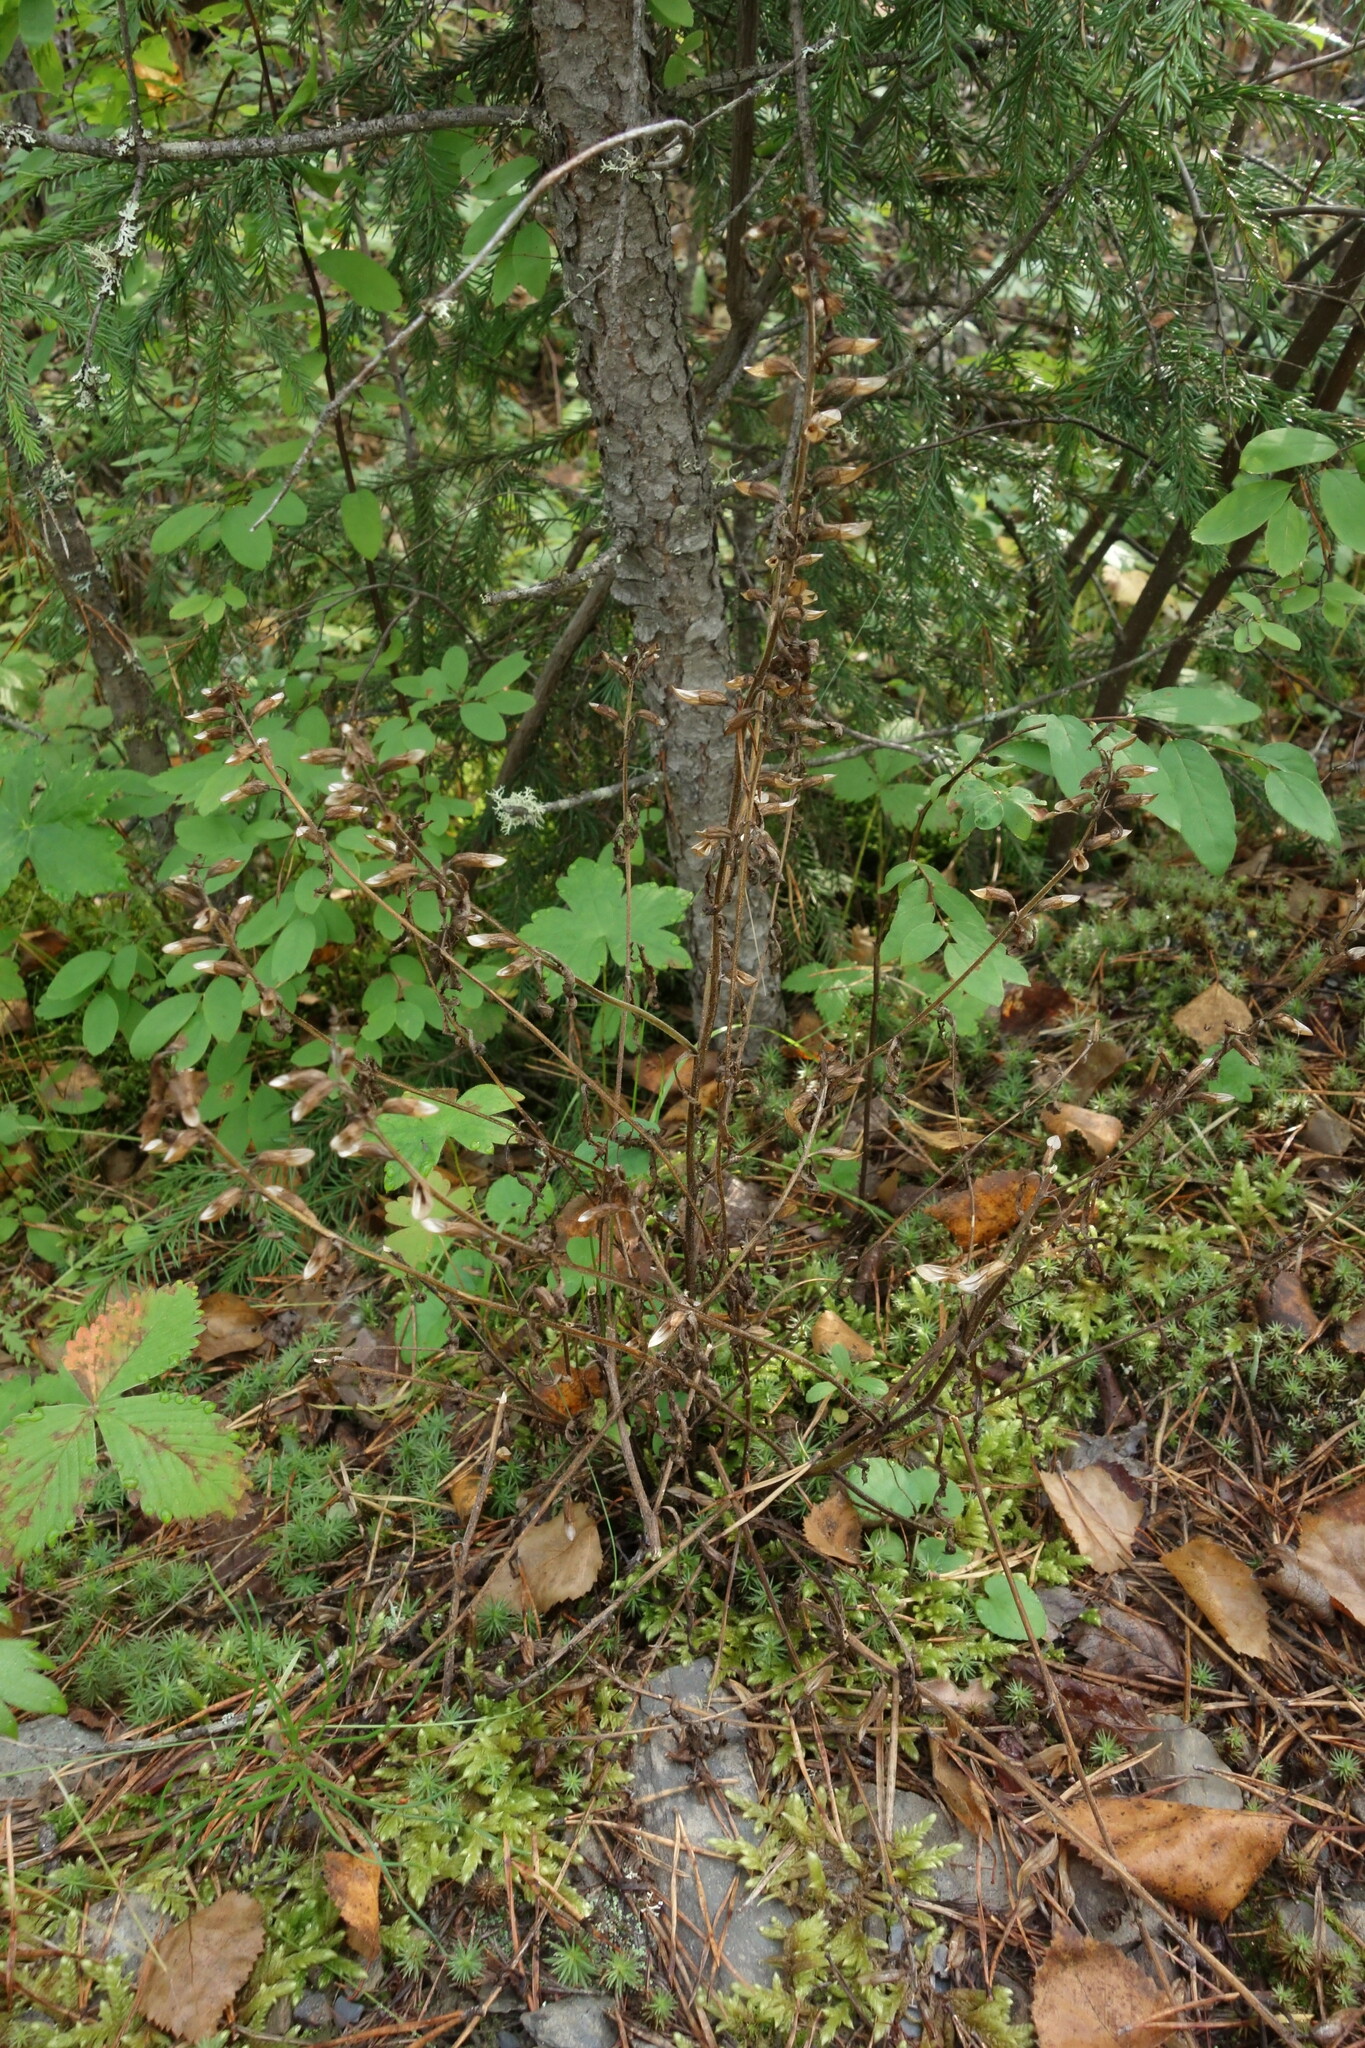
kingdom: Plantae
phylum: Tracheophyta
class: Magnoliopsida
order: Lamiales
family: Orobanchaceae
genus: Pedicularis
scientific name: Pedicularis labradorica
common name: Labrador lousewort
